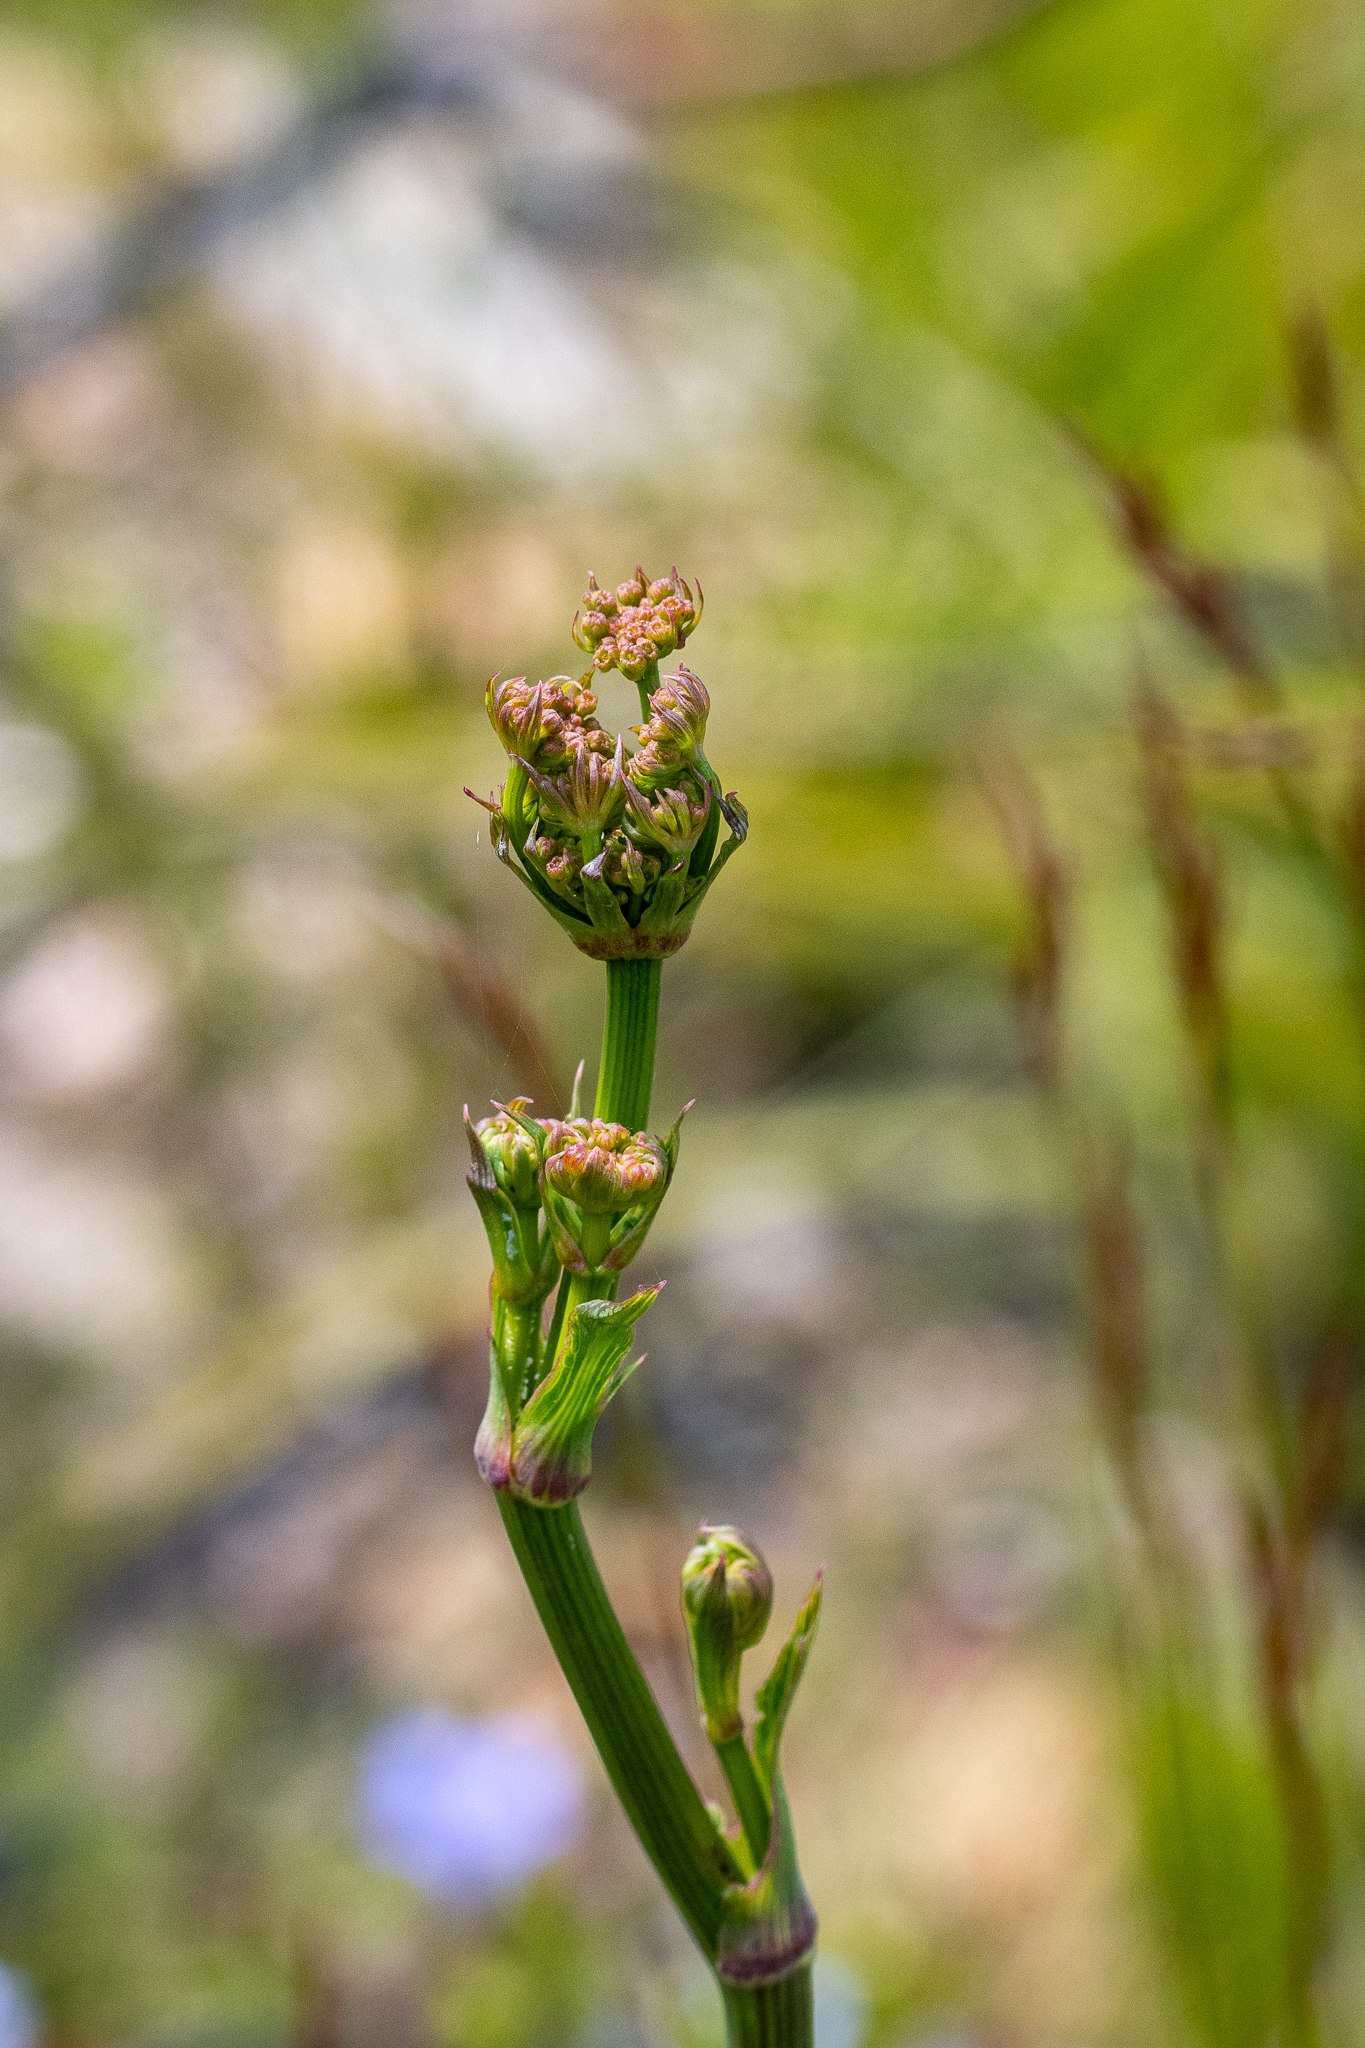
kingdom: Plantae
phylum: Tracheophyta
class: Magnoliopsida
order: Apiales
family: Apiaceae
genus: Lichtensteinia
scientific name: Lichtensteinia lacera
